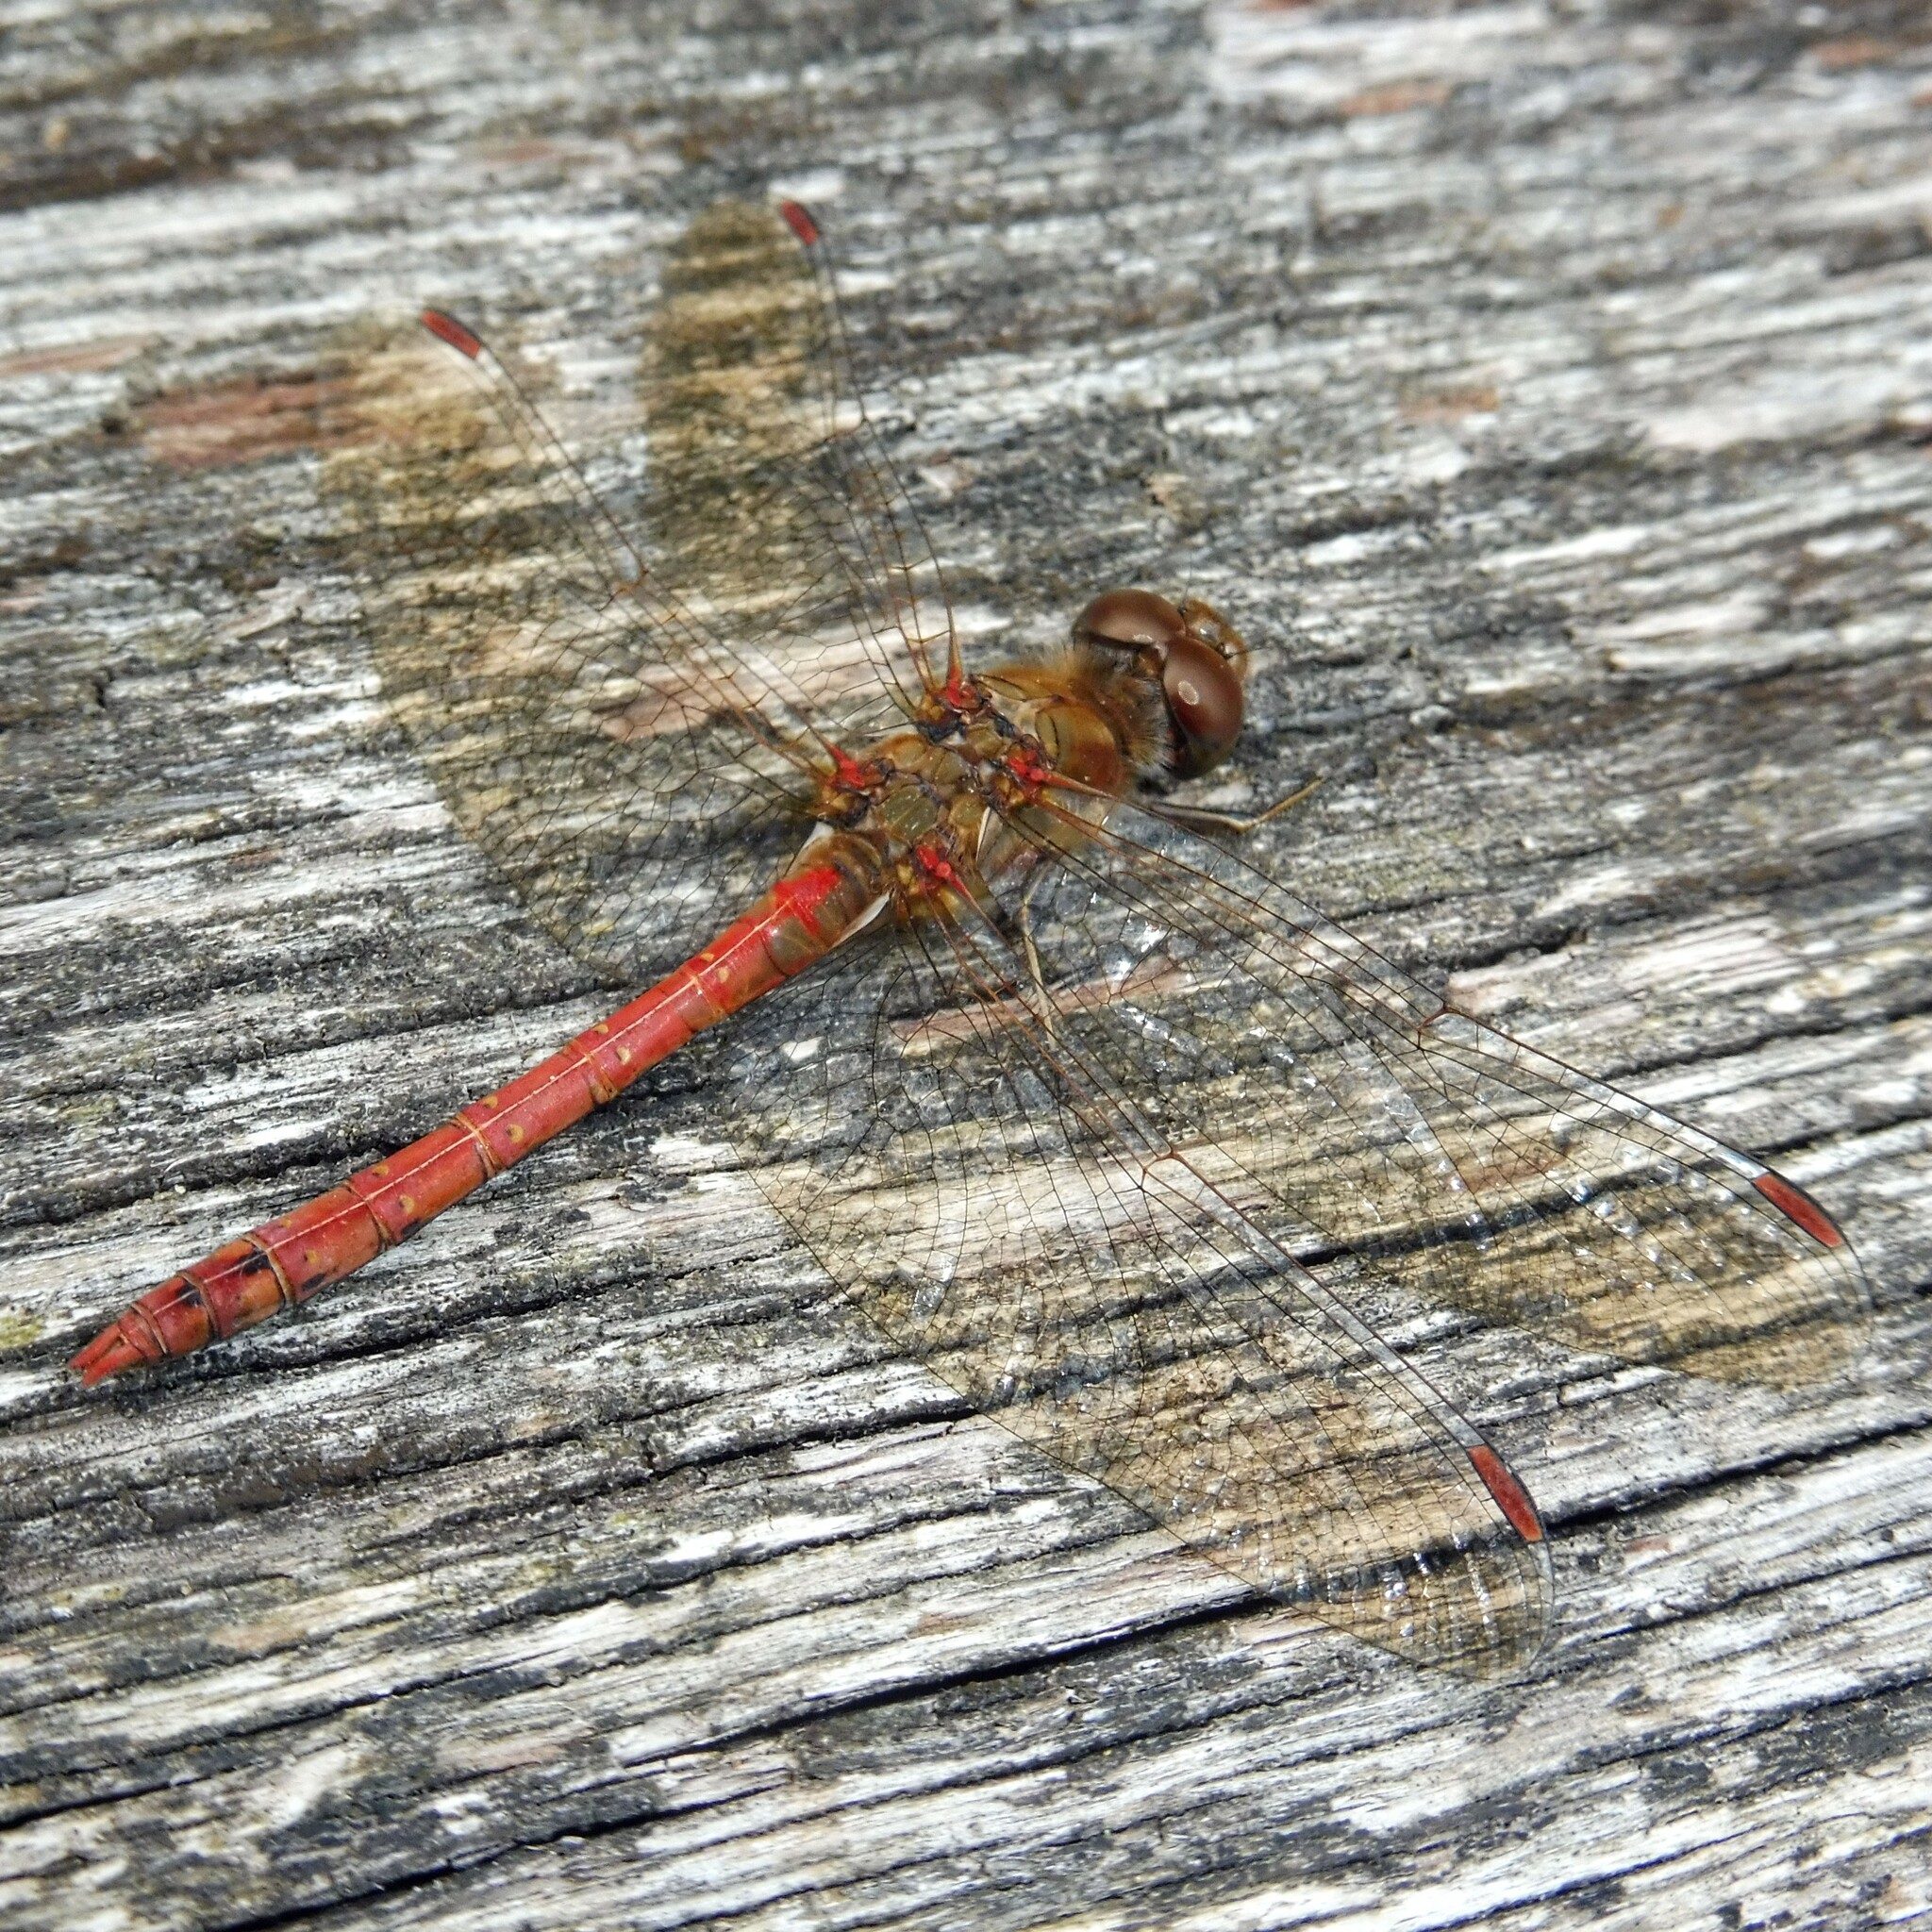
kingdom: Animalia
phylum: Arthropoda
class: Insecta
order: Odonata
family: Libellulidae
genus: Sympetrum
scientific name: Sympetrum striolatum
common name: Common darter
